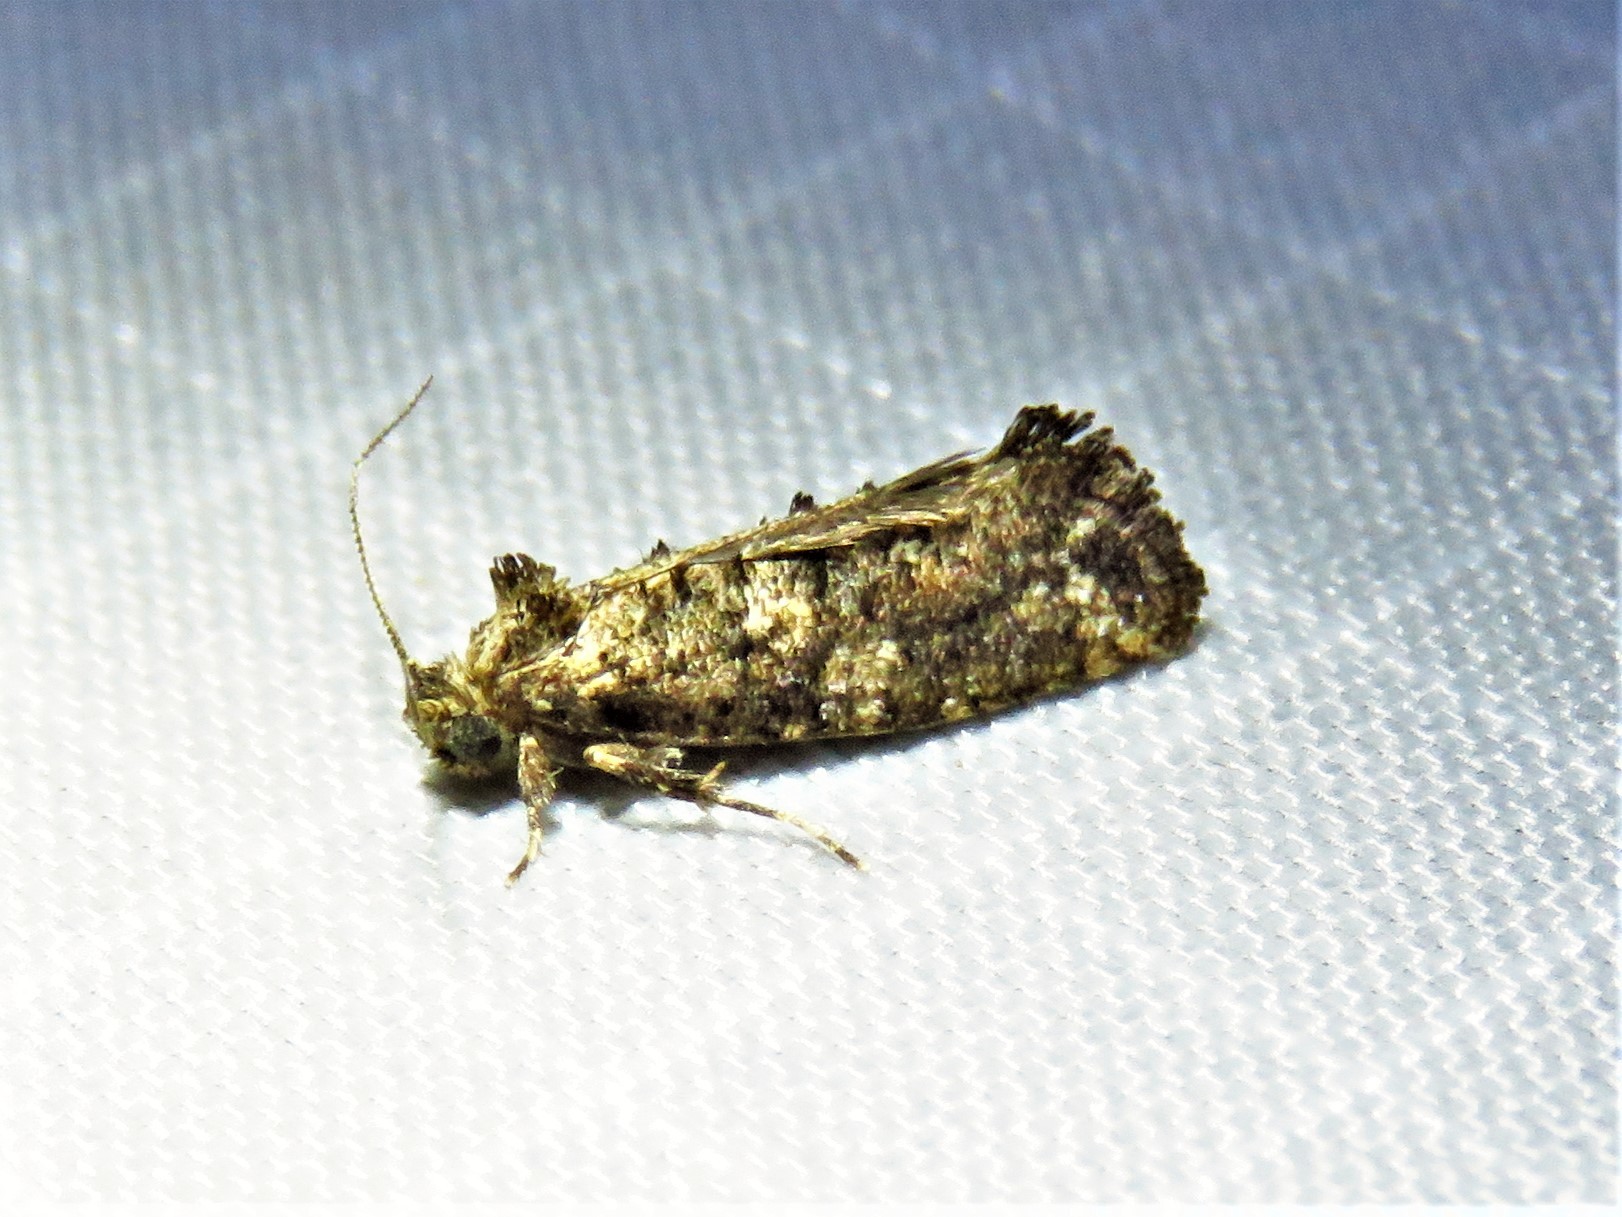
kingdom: Animalia
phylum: Arthropoda
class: Insecta
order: Lepidoptera
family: Tineidae
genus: Acrolophus
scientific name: Acrolophus cressoni
